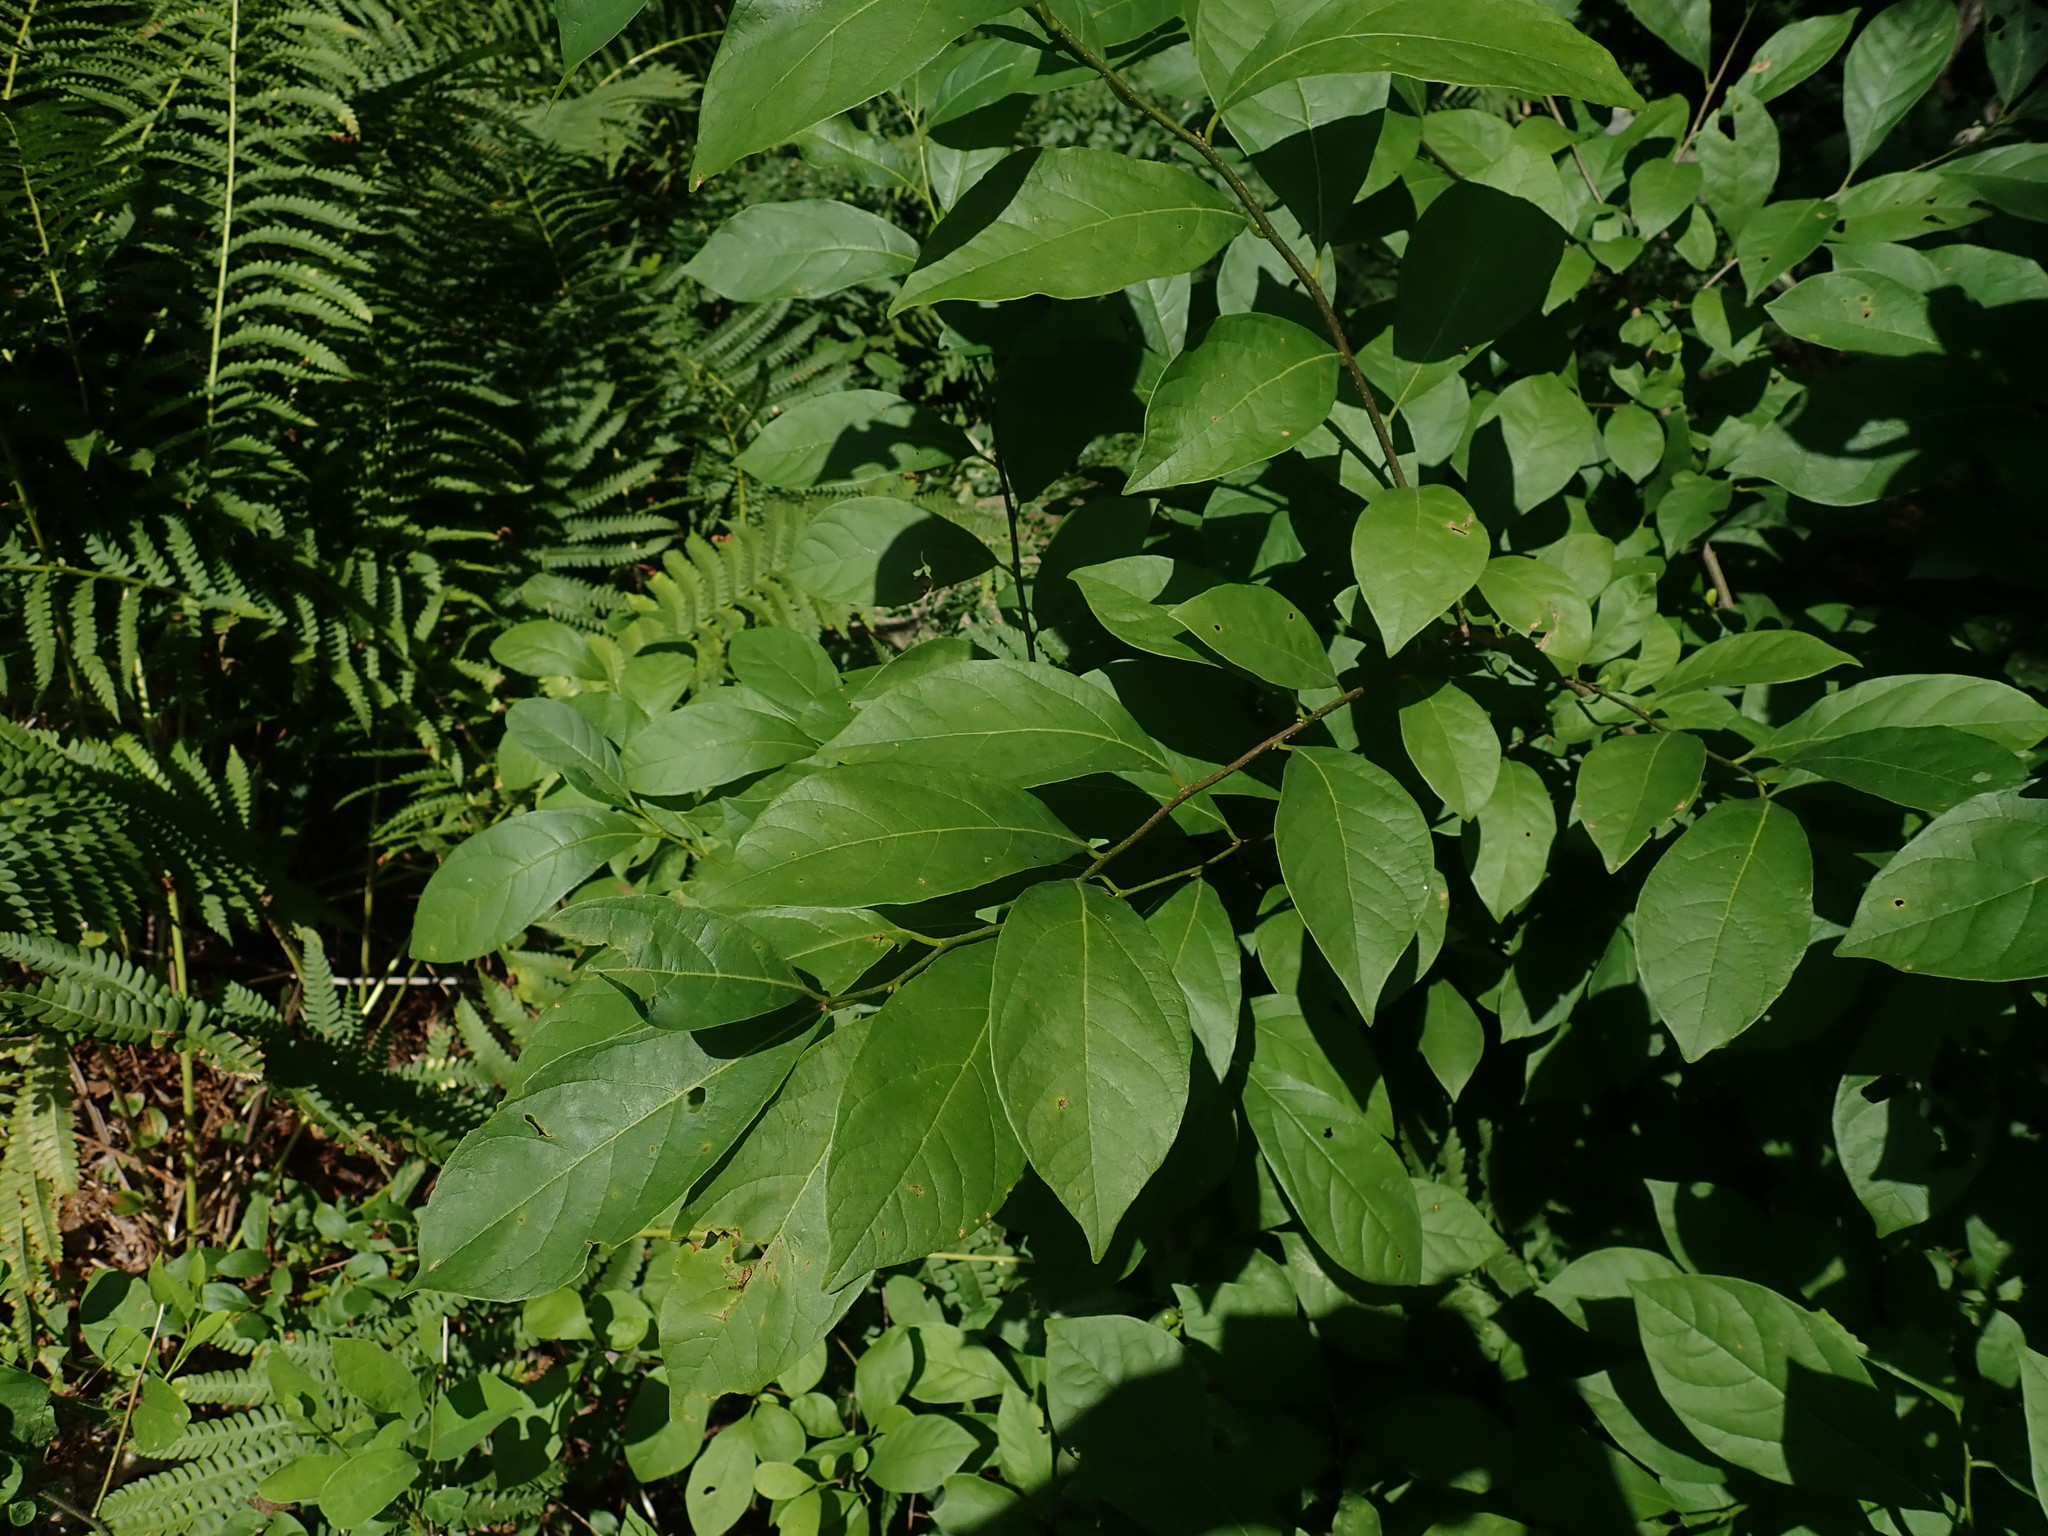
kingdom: Plantae
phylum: Tracheophyta
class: Magnoliopsida
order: Laurales
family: Lauraceae
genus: Lindera
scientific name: Lindera benzoin
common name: Spicebush
